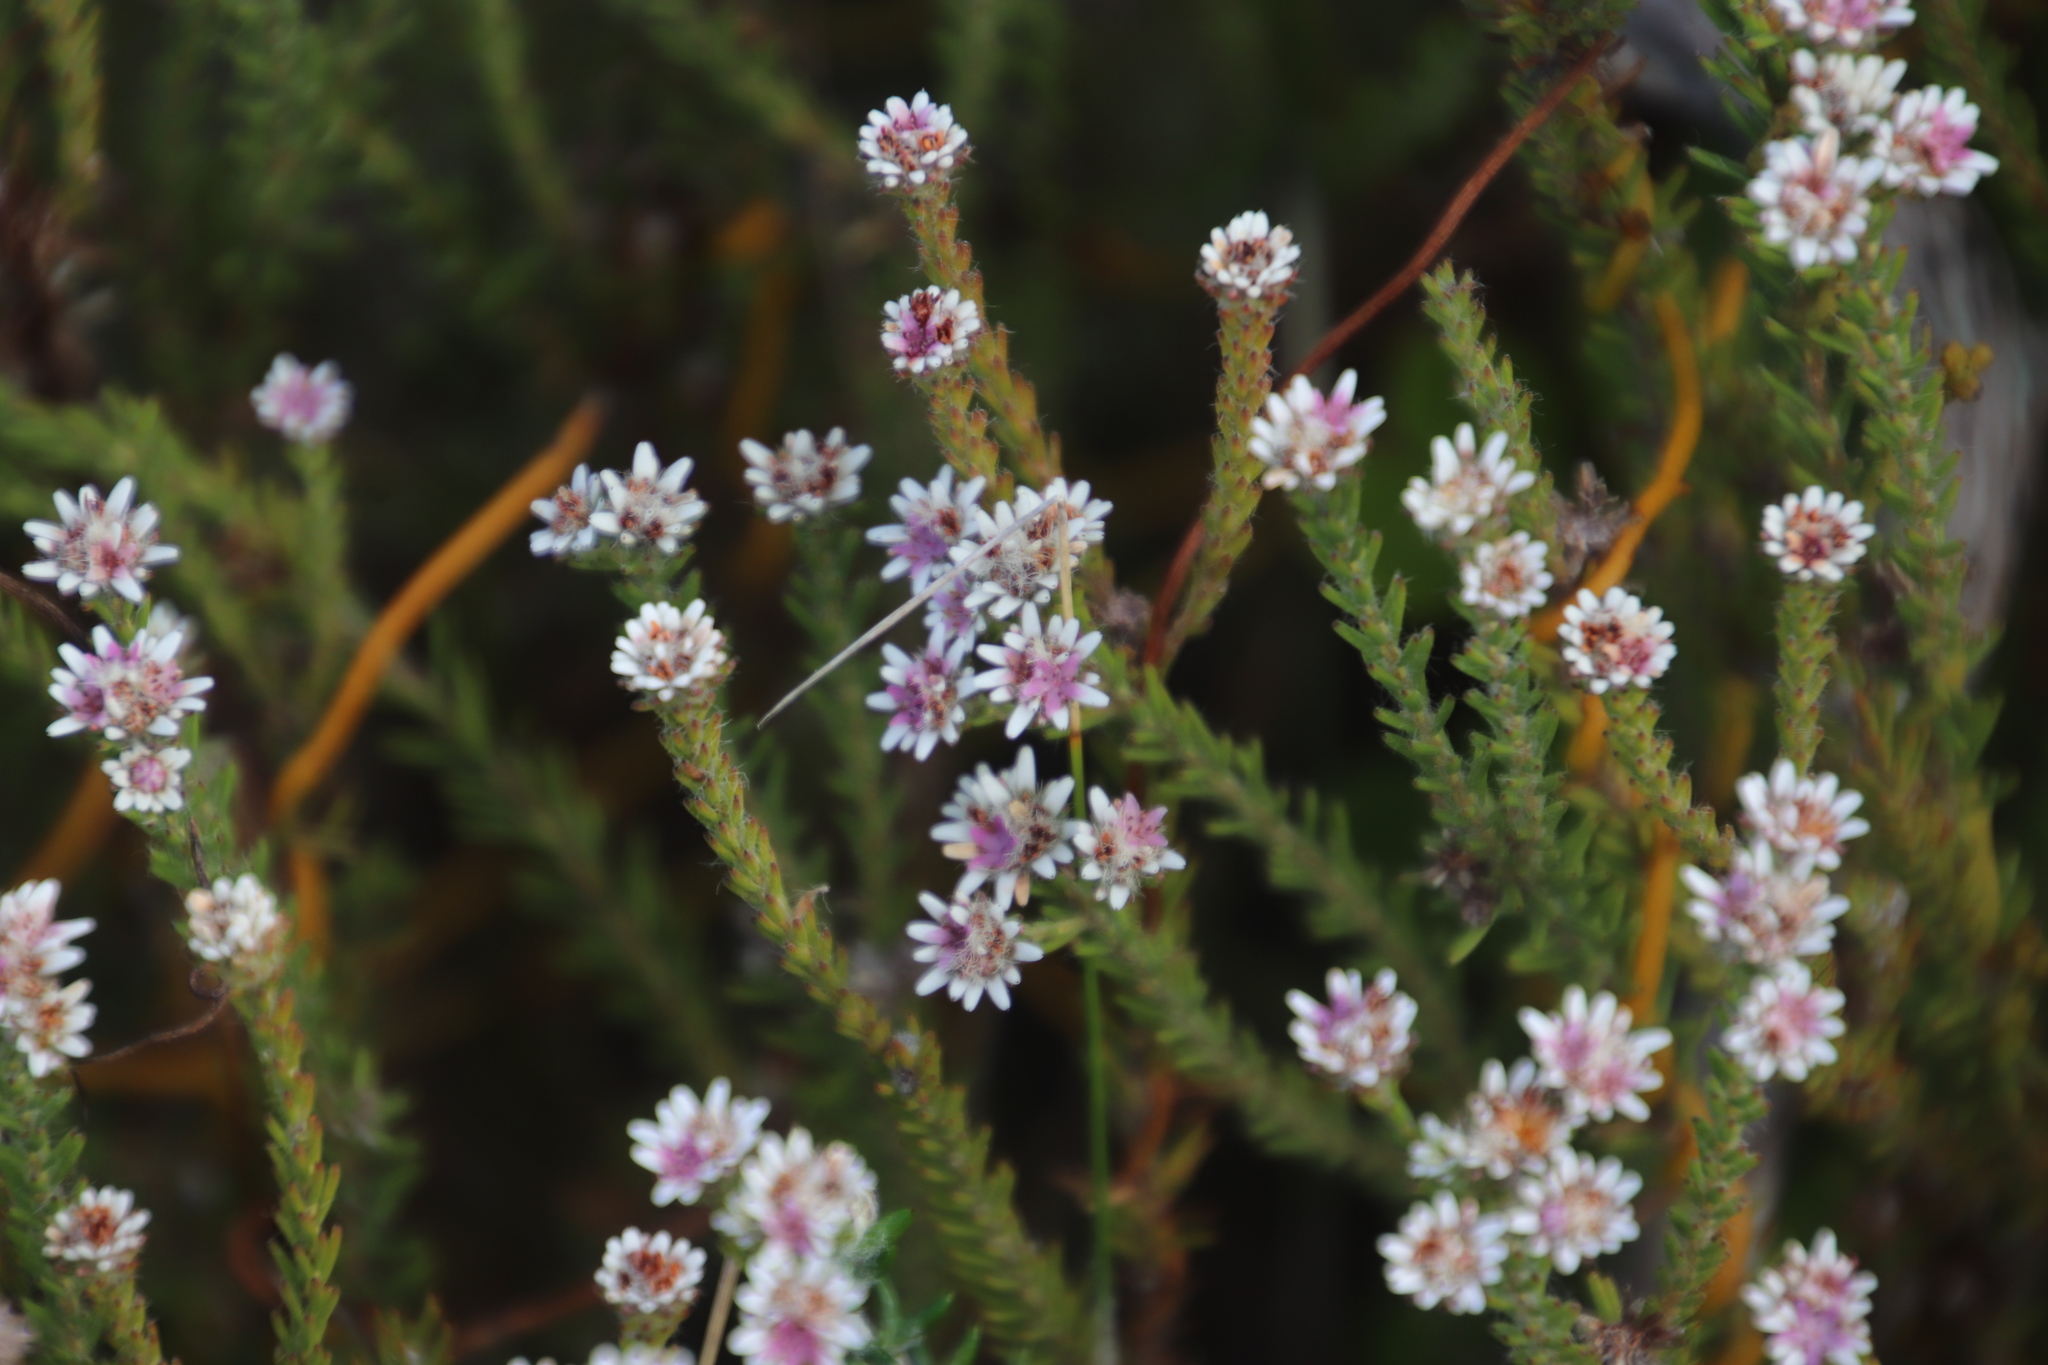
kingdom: Plantae
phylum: Tracheophyta
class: Magnoliopsida
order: Bruniales
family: Bruniaceae
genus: Staavia
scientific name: Staavia radiata
